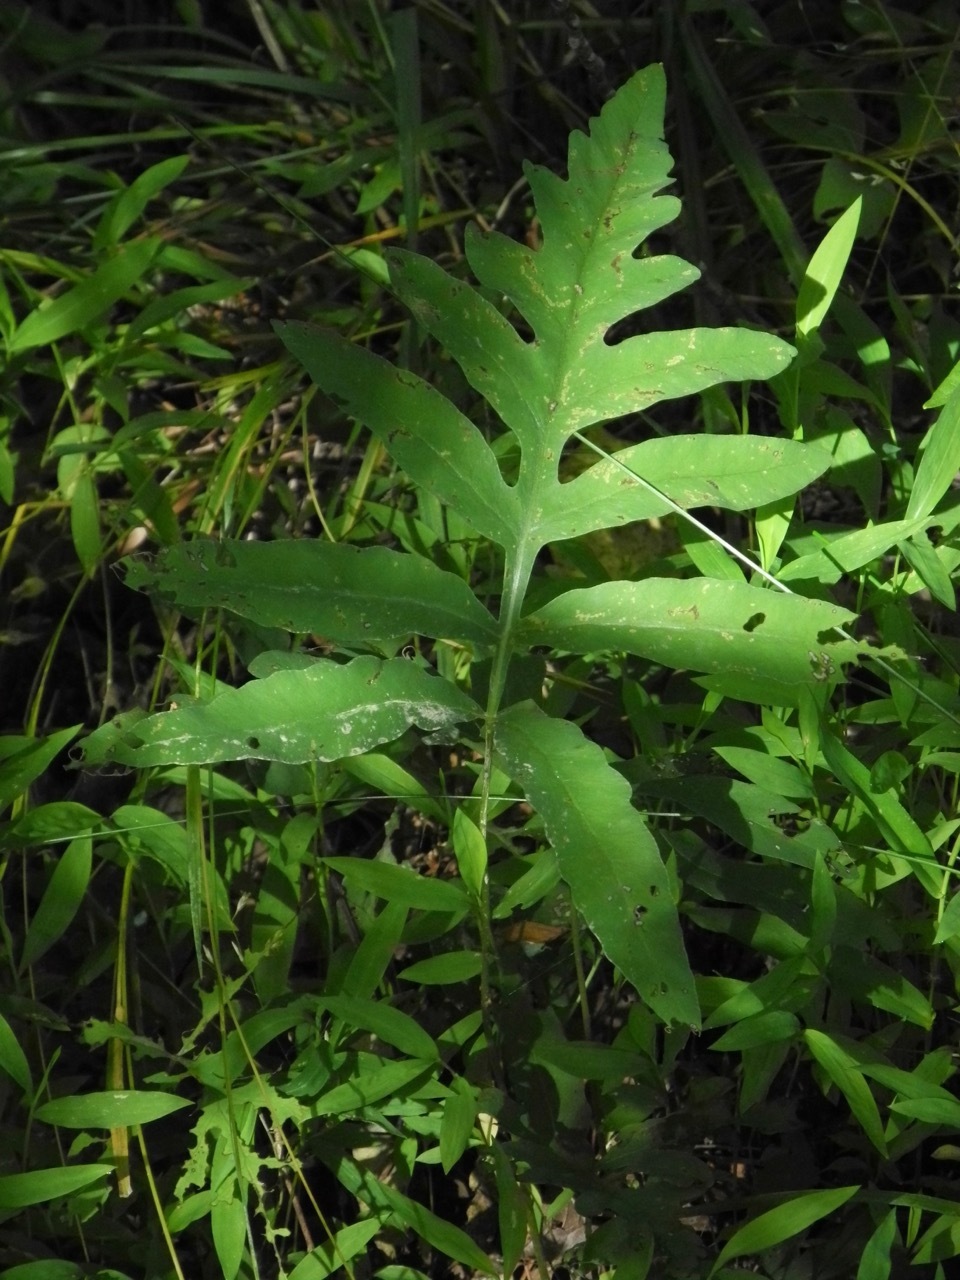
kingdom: Plantae
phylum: Tracheophyta
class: Polypodiopsida
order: Polypodiales
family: Onocleaceae
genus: Onoclea
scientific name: Onoclea sensibilis
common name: Sensitive fern
